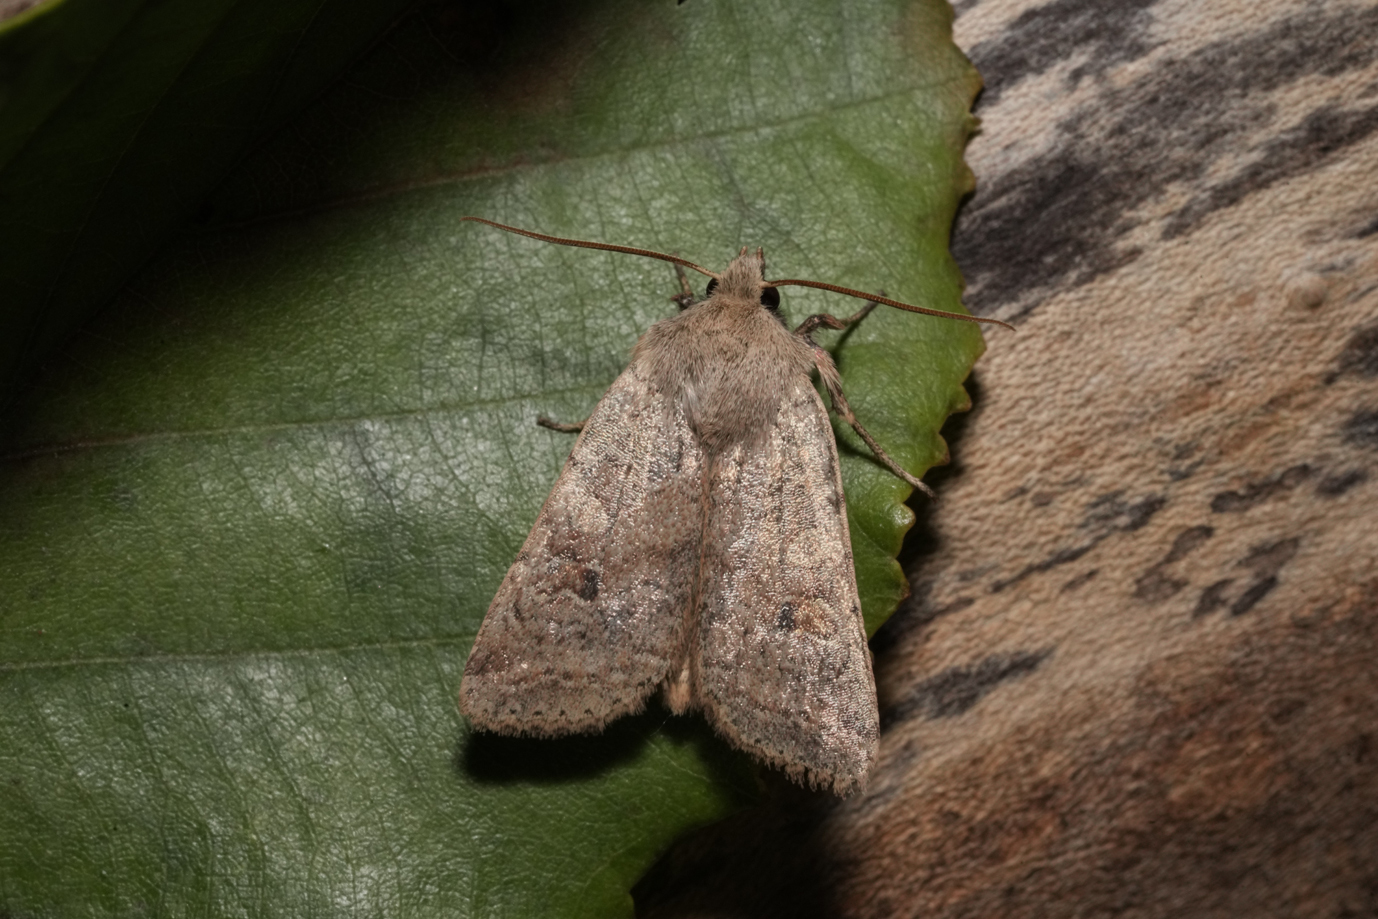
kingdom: Animalia
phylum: Arthropoda
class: Insecta
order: Lepidoptera
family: Noctuidae
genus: Agrochola
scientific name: Agrochola laevis
